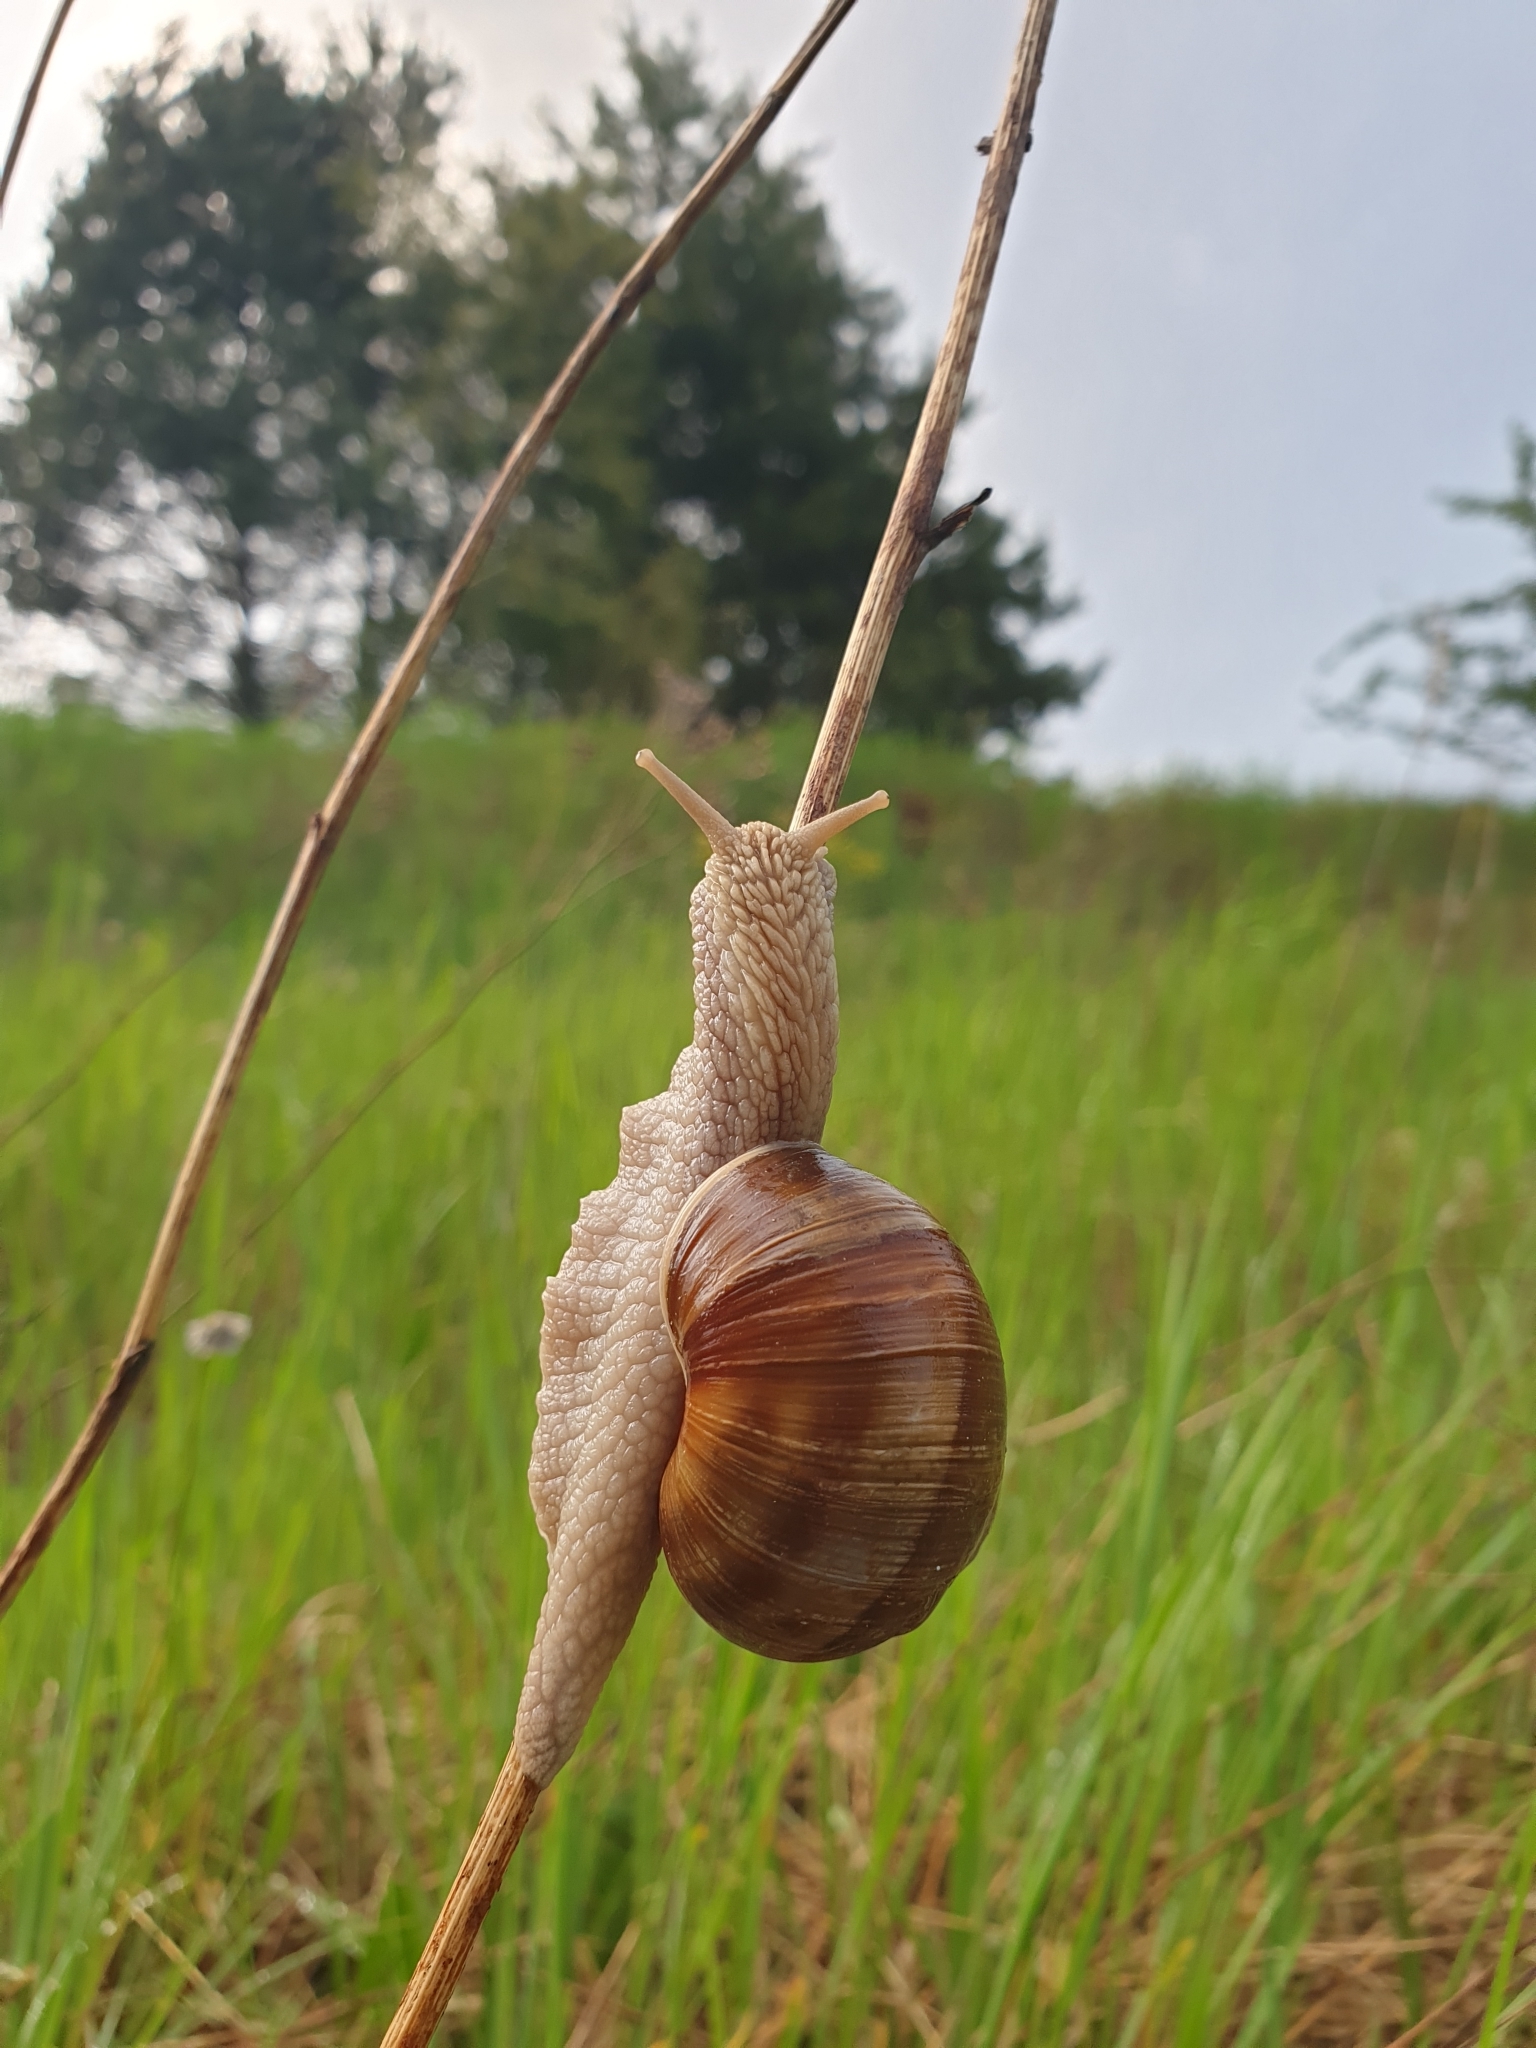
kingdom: Animalia
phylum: Mollusca
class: Gastropoda
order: Stylommatophora
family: Helicidae
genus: Helix
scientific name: Helix pomatia
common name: Roman snail
